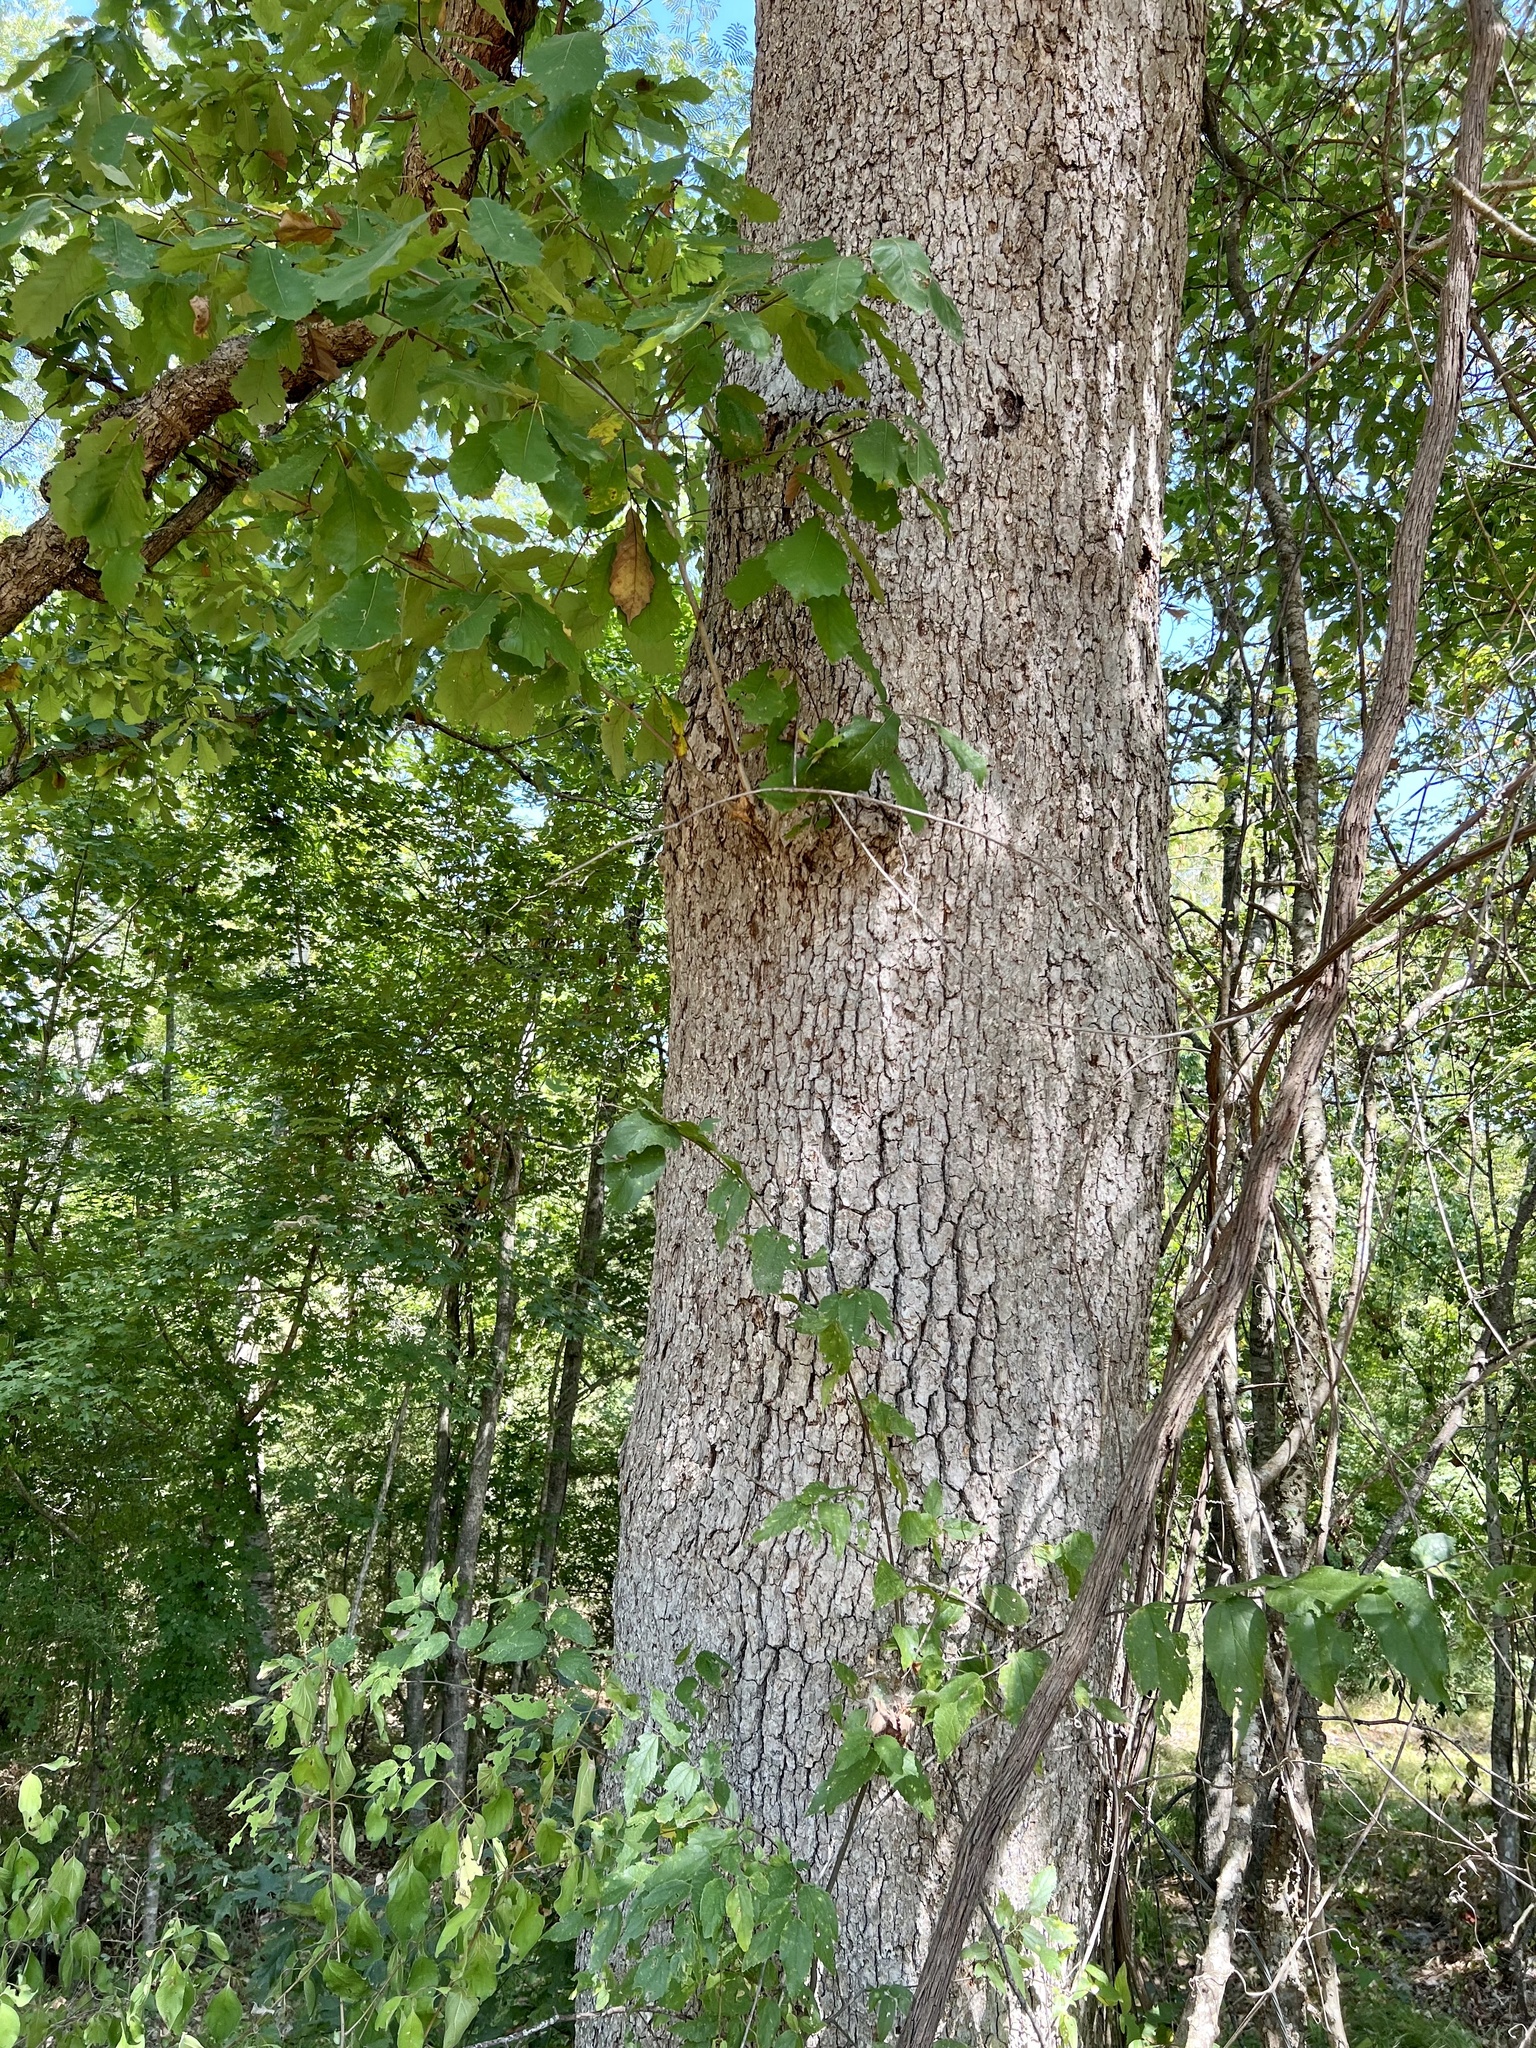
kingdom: Plantae
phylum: Tracheophyta
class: Magnoliopsida
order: Fagales
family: Fagaceae
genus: Quercus
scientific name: Quercus muehlenbergii
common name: Chinkapin oak
